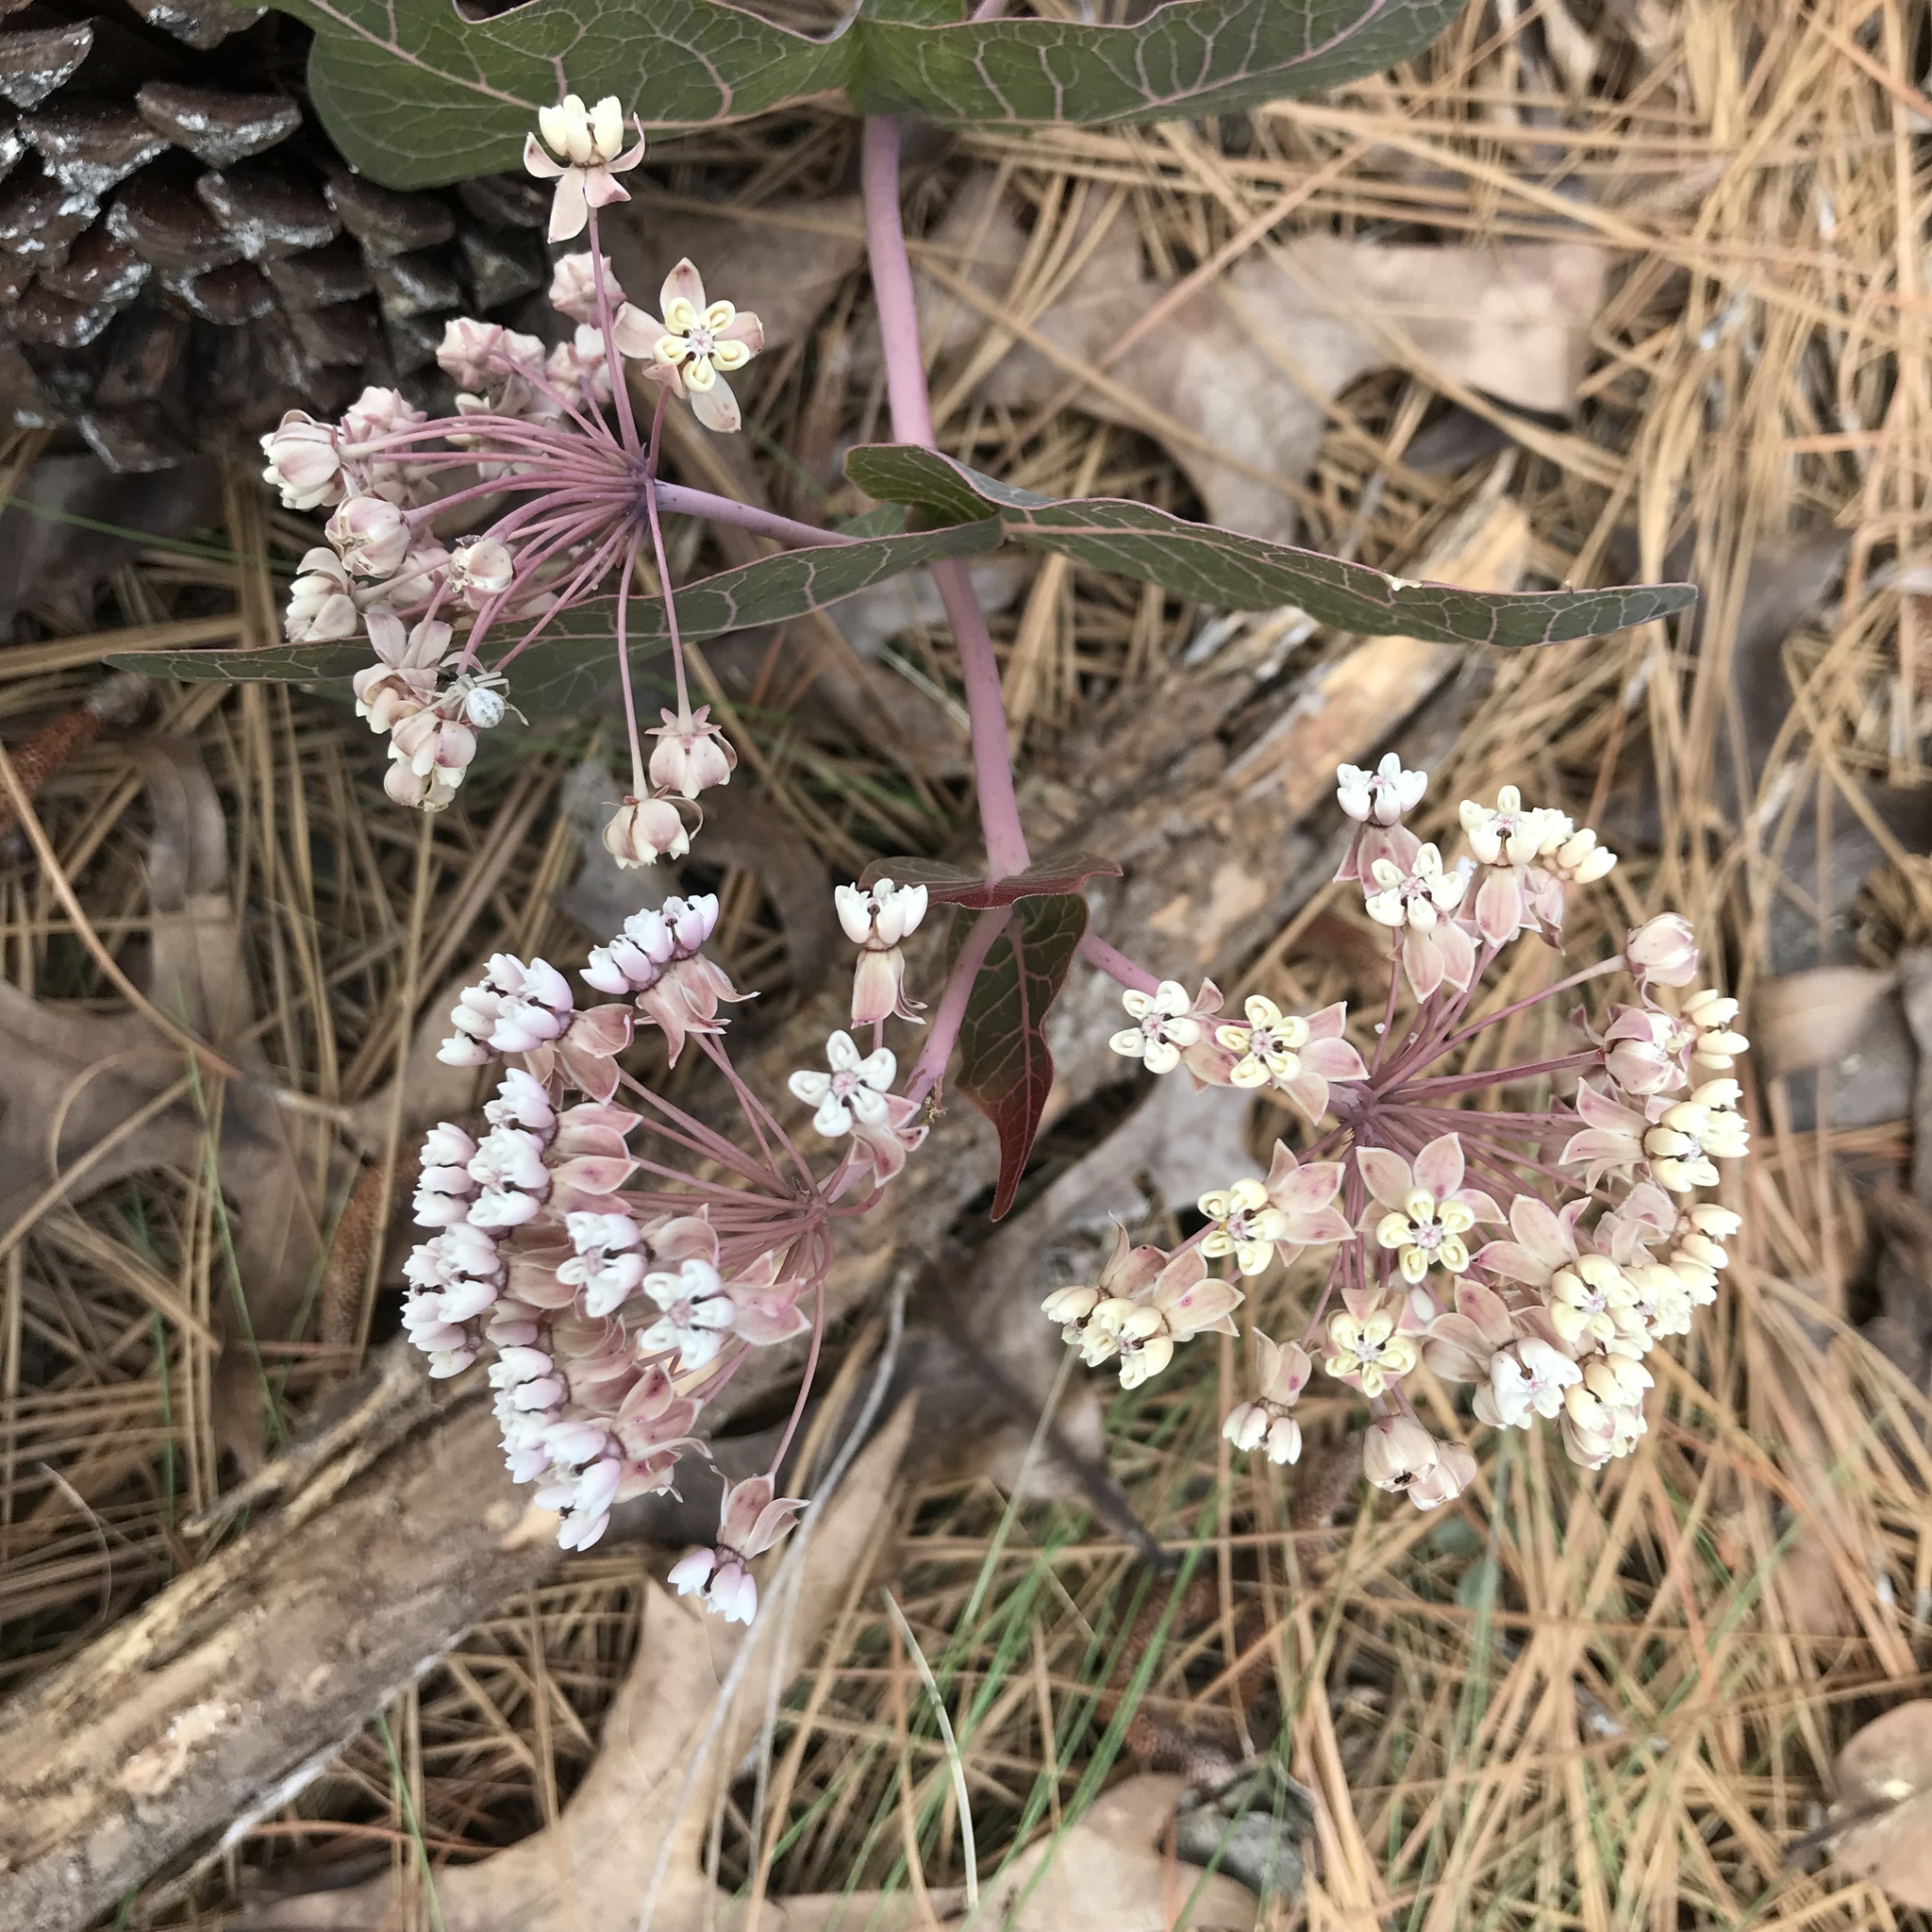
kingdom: Plantae
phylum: Tracheophyta
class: Magnoliopsida
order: Gentianales
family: Apocynaceae
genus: Asclepias
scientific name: Asclepias humistrata
